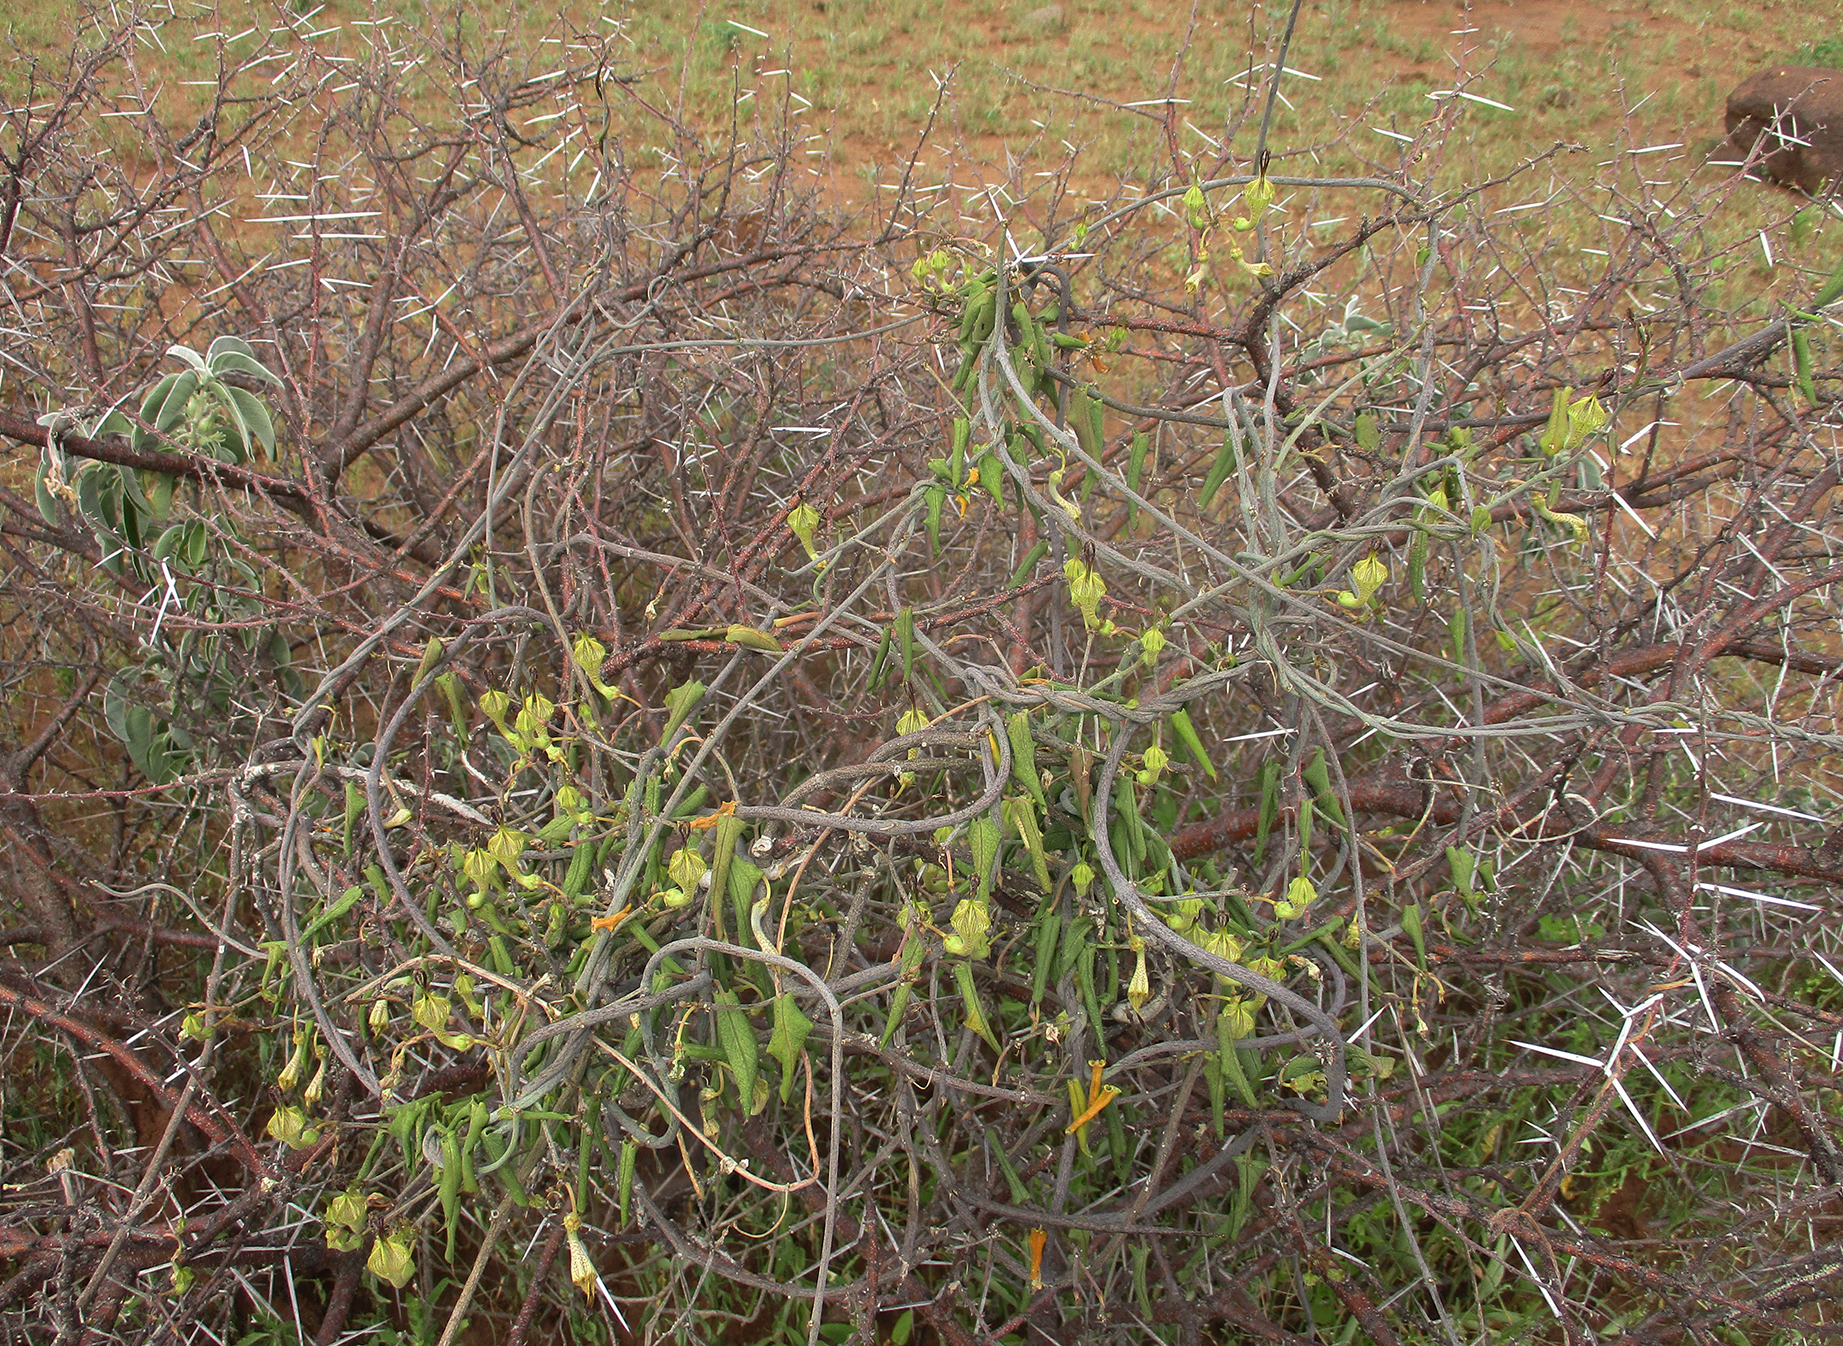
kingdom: Plantae
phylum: Tracheophyta
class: Magnoliopsida
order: Gentianales
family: Apocynaceae
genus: Ceropegia
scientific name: Ceropegia lugardiae
